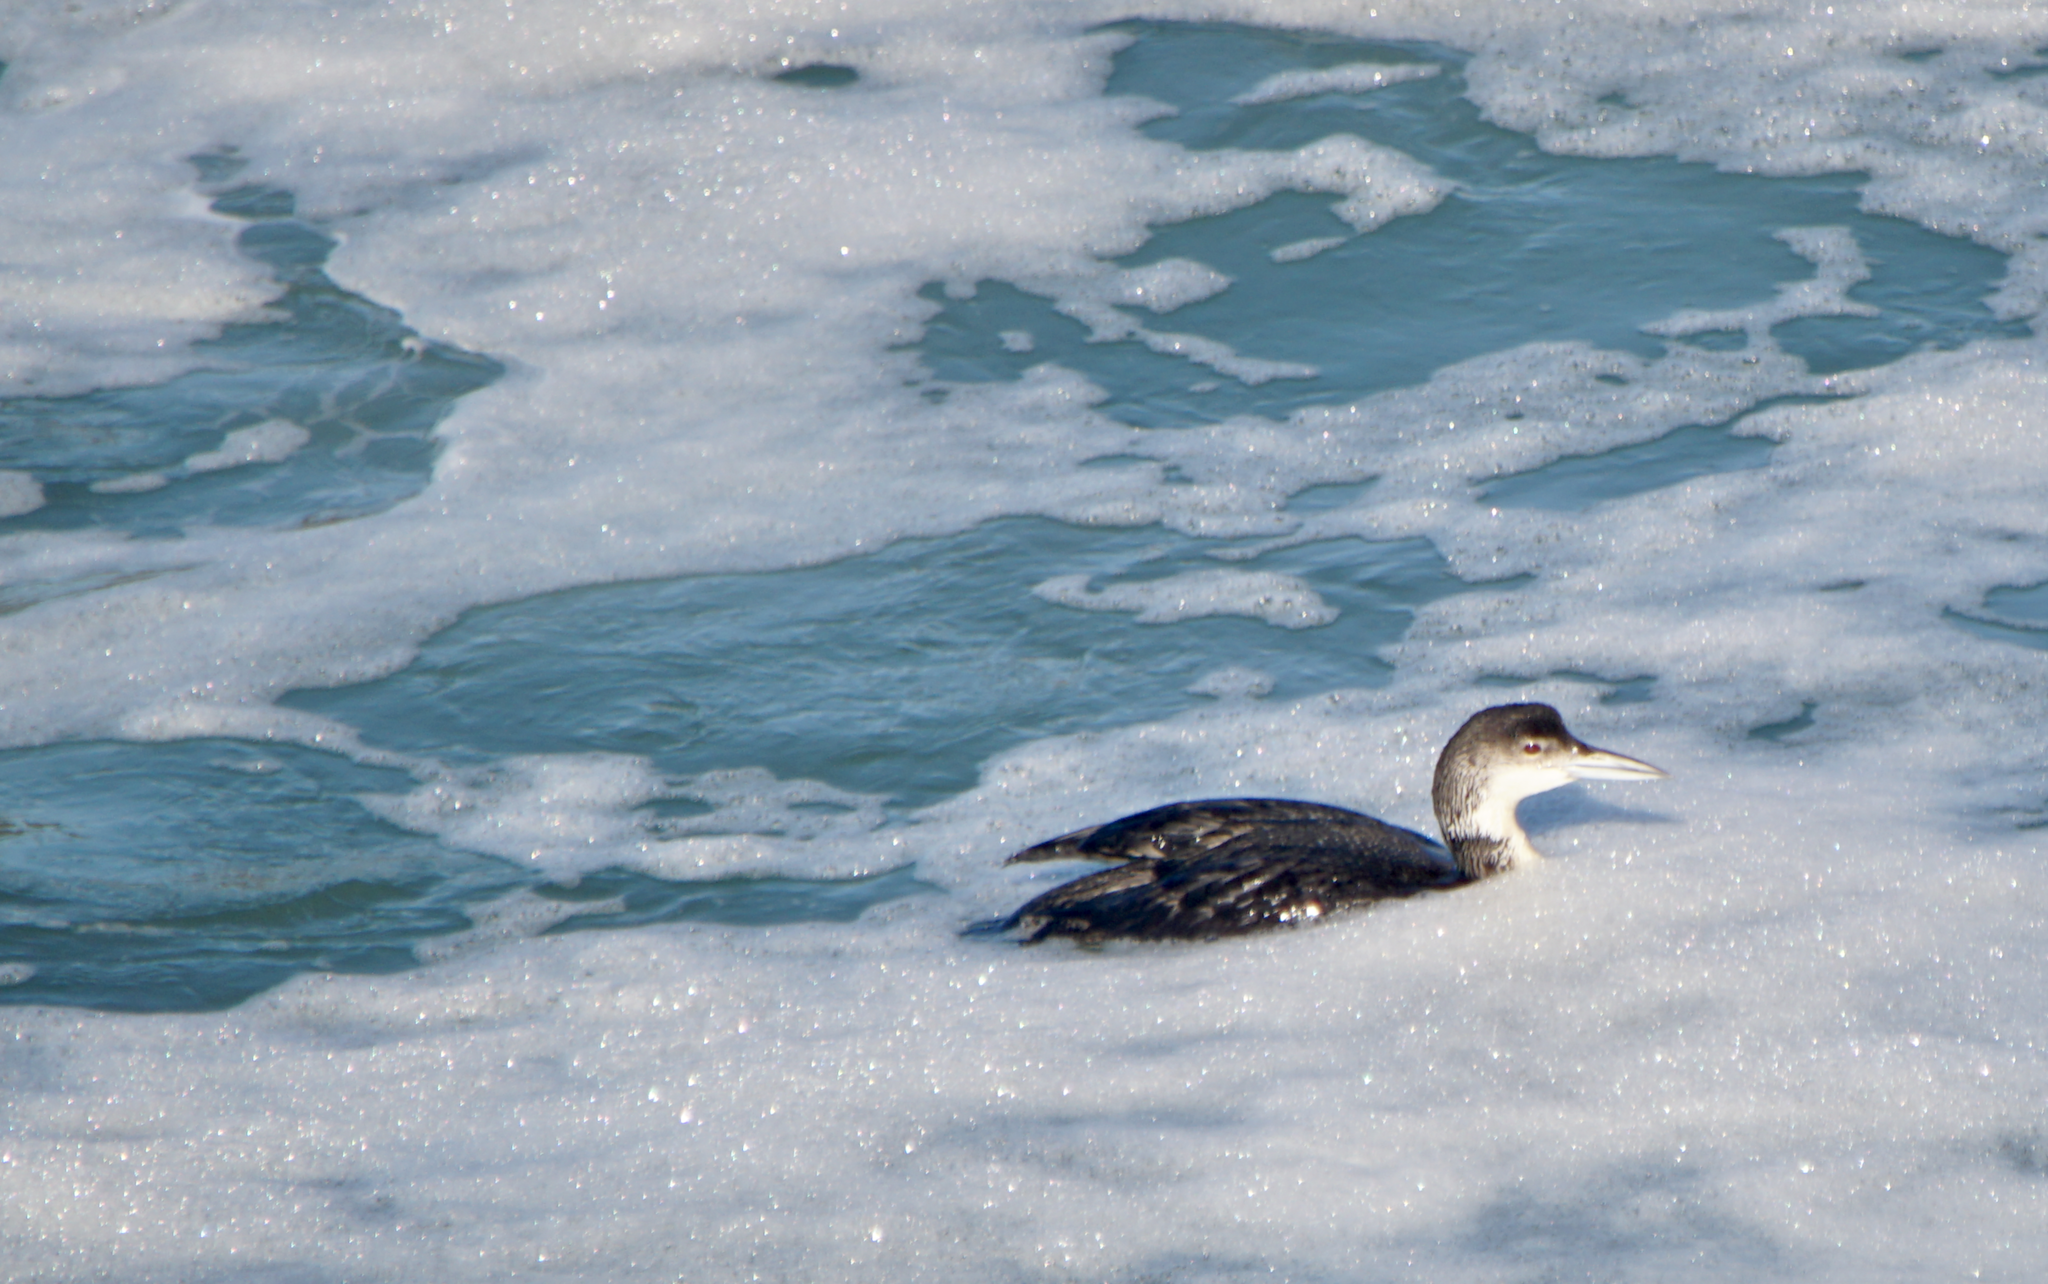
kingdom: Animalia
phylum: Chordata
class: Aves
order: Gaviiformes
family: Gaviidae
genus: Gavia
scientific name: Gavia immer
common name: Common loon
